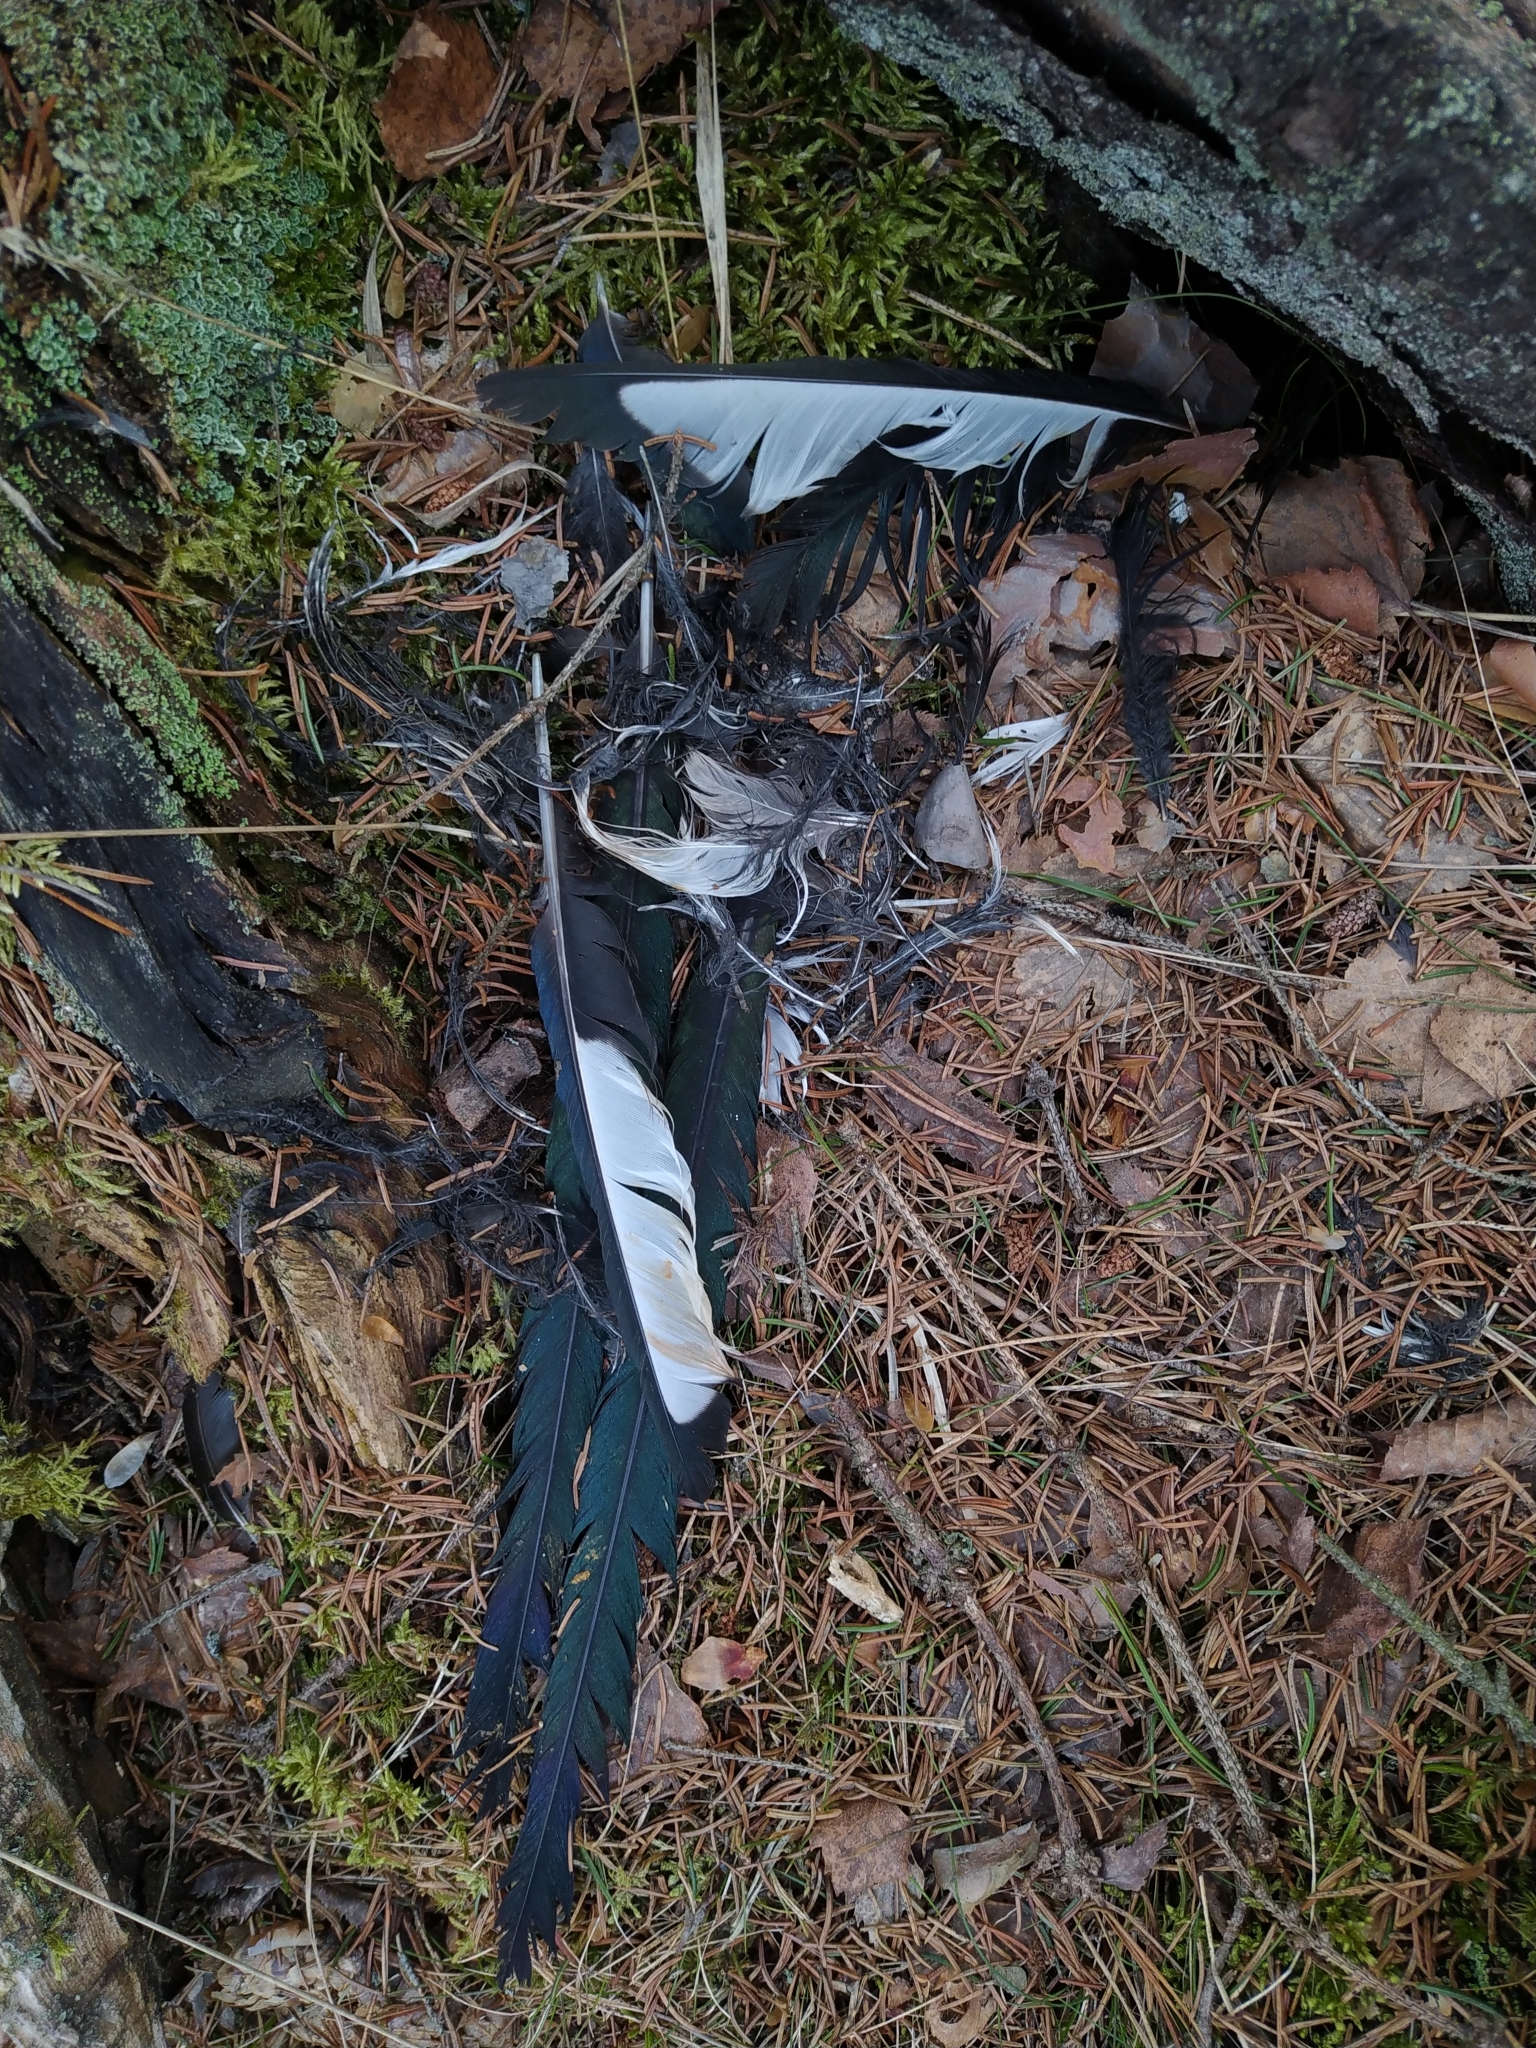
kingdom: Animalia
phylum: Chordata
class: Aves
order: Passeriformes
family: Corvidae
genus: Pica
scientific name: Pica pica
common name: Eurasian magpie
